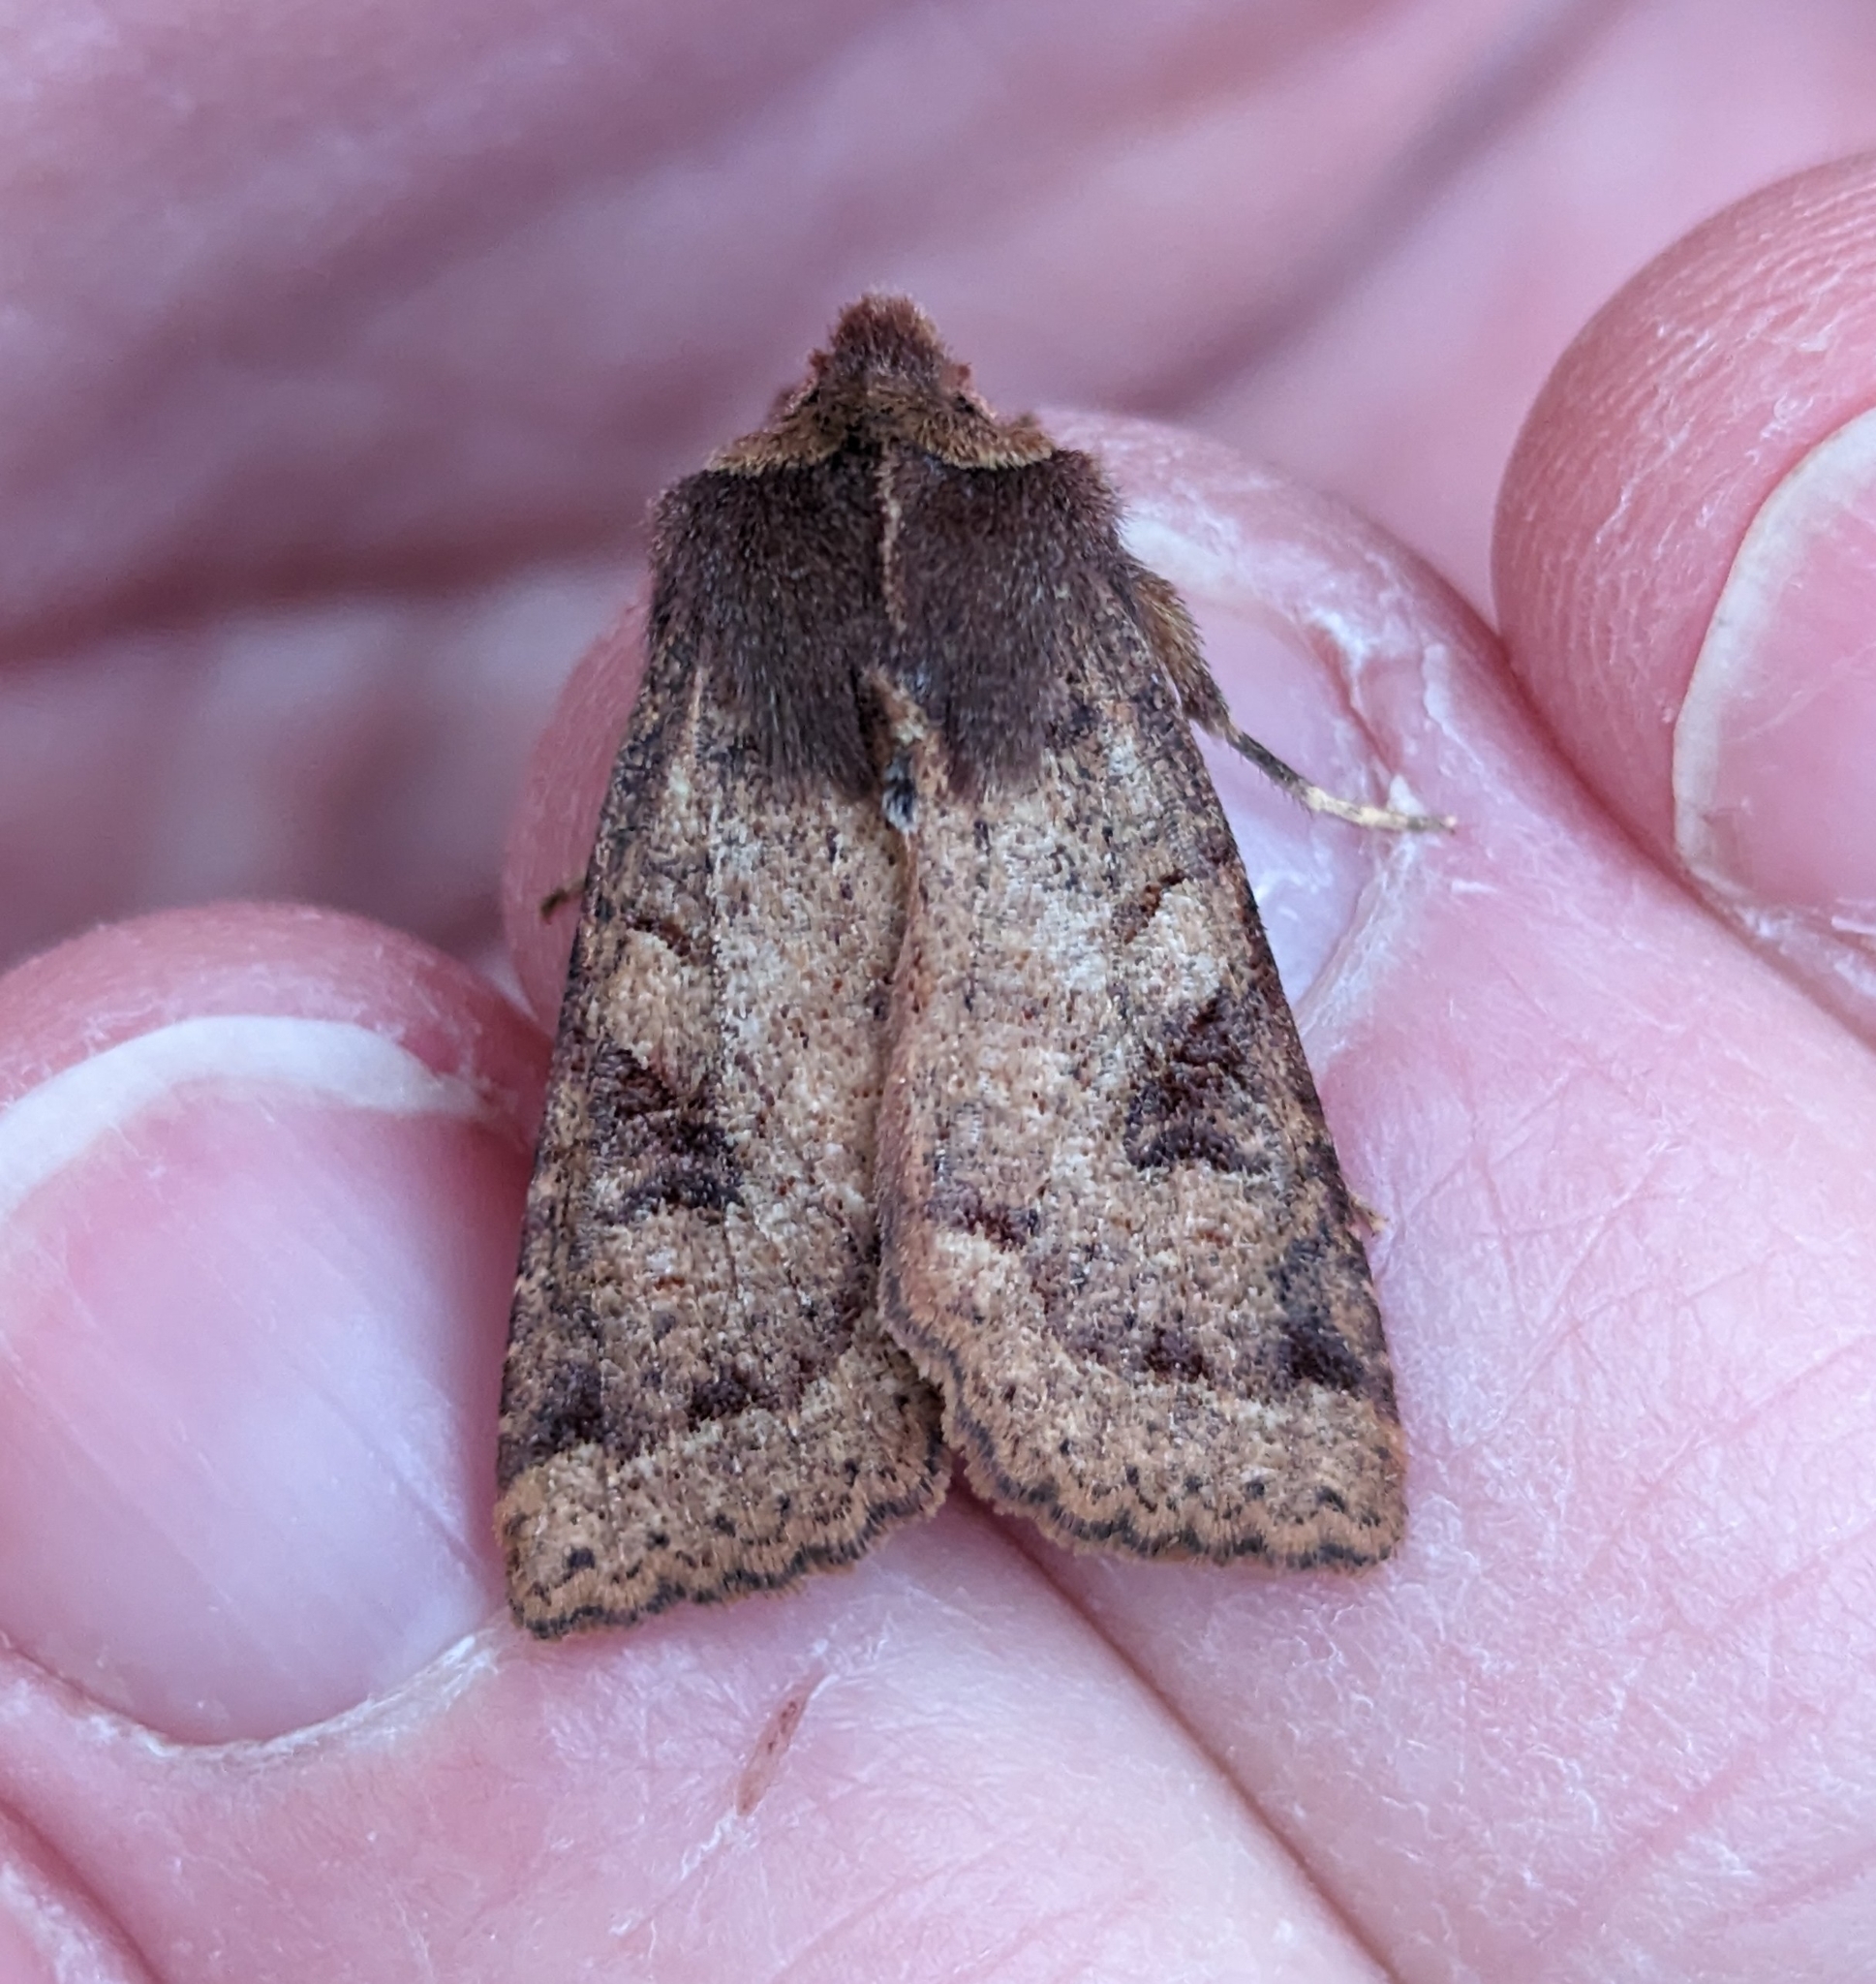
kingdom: Animalia
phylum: Arthropoda
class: Insecta
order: Lepidoptera
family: Noctuidae
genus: Orthosia
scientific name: Orthosia praeses
